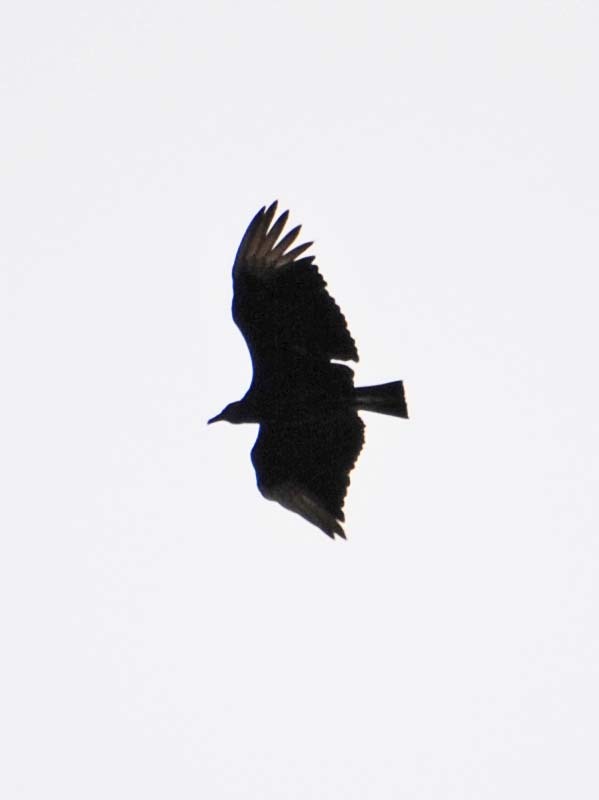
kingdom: Animalia
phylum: Chordata
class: Aves
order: Accipitriformes
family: Cathartidae
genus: Coragyps
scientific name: Coragyps atratus
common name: Black vulture
